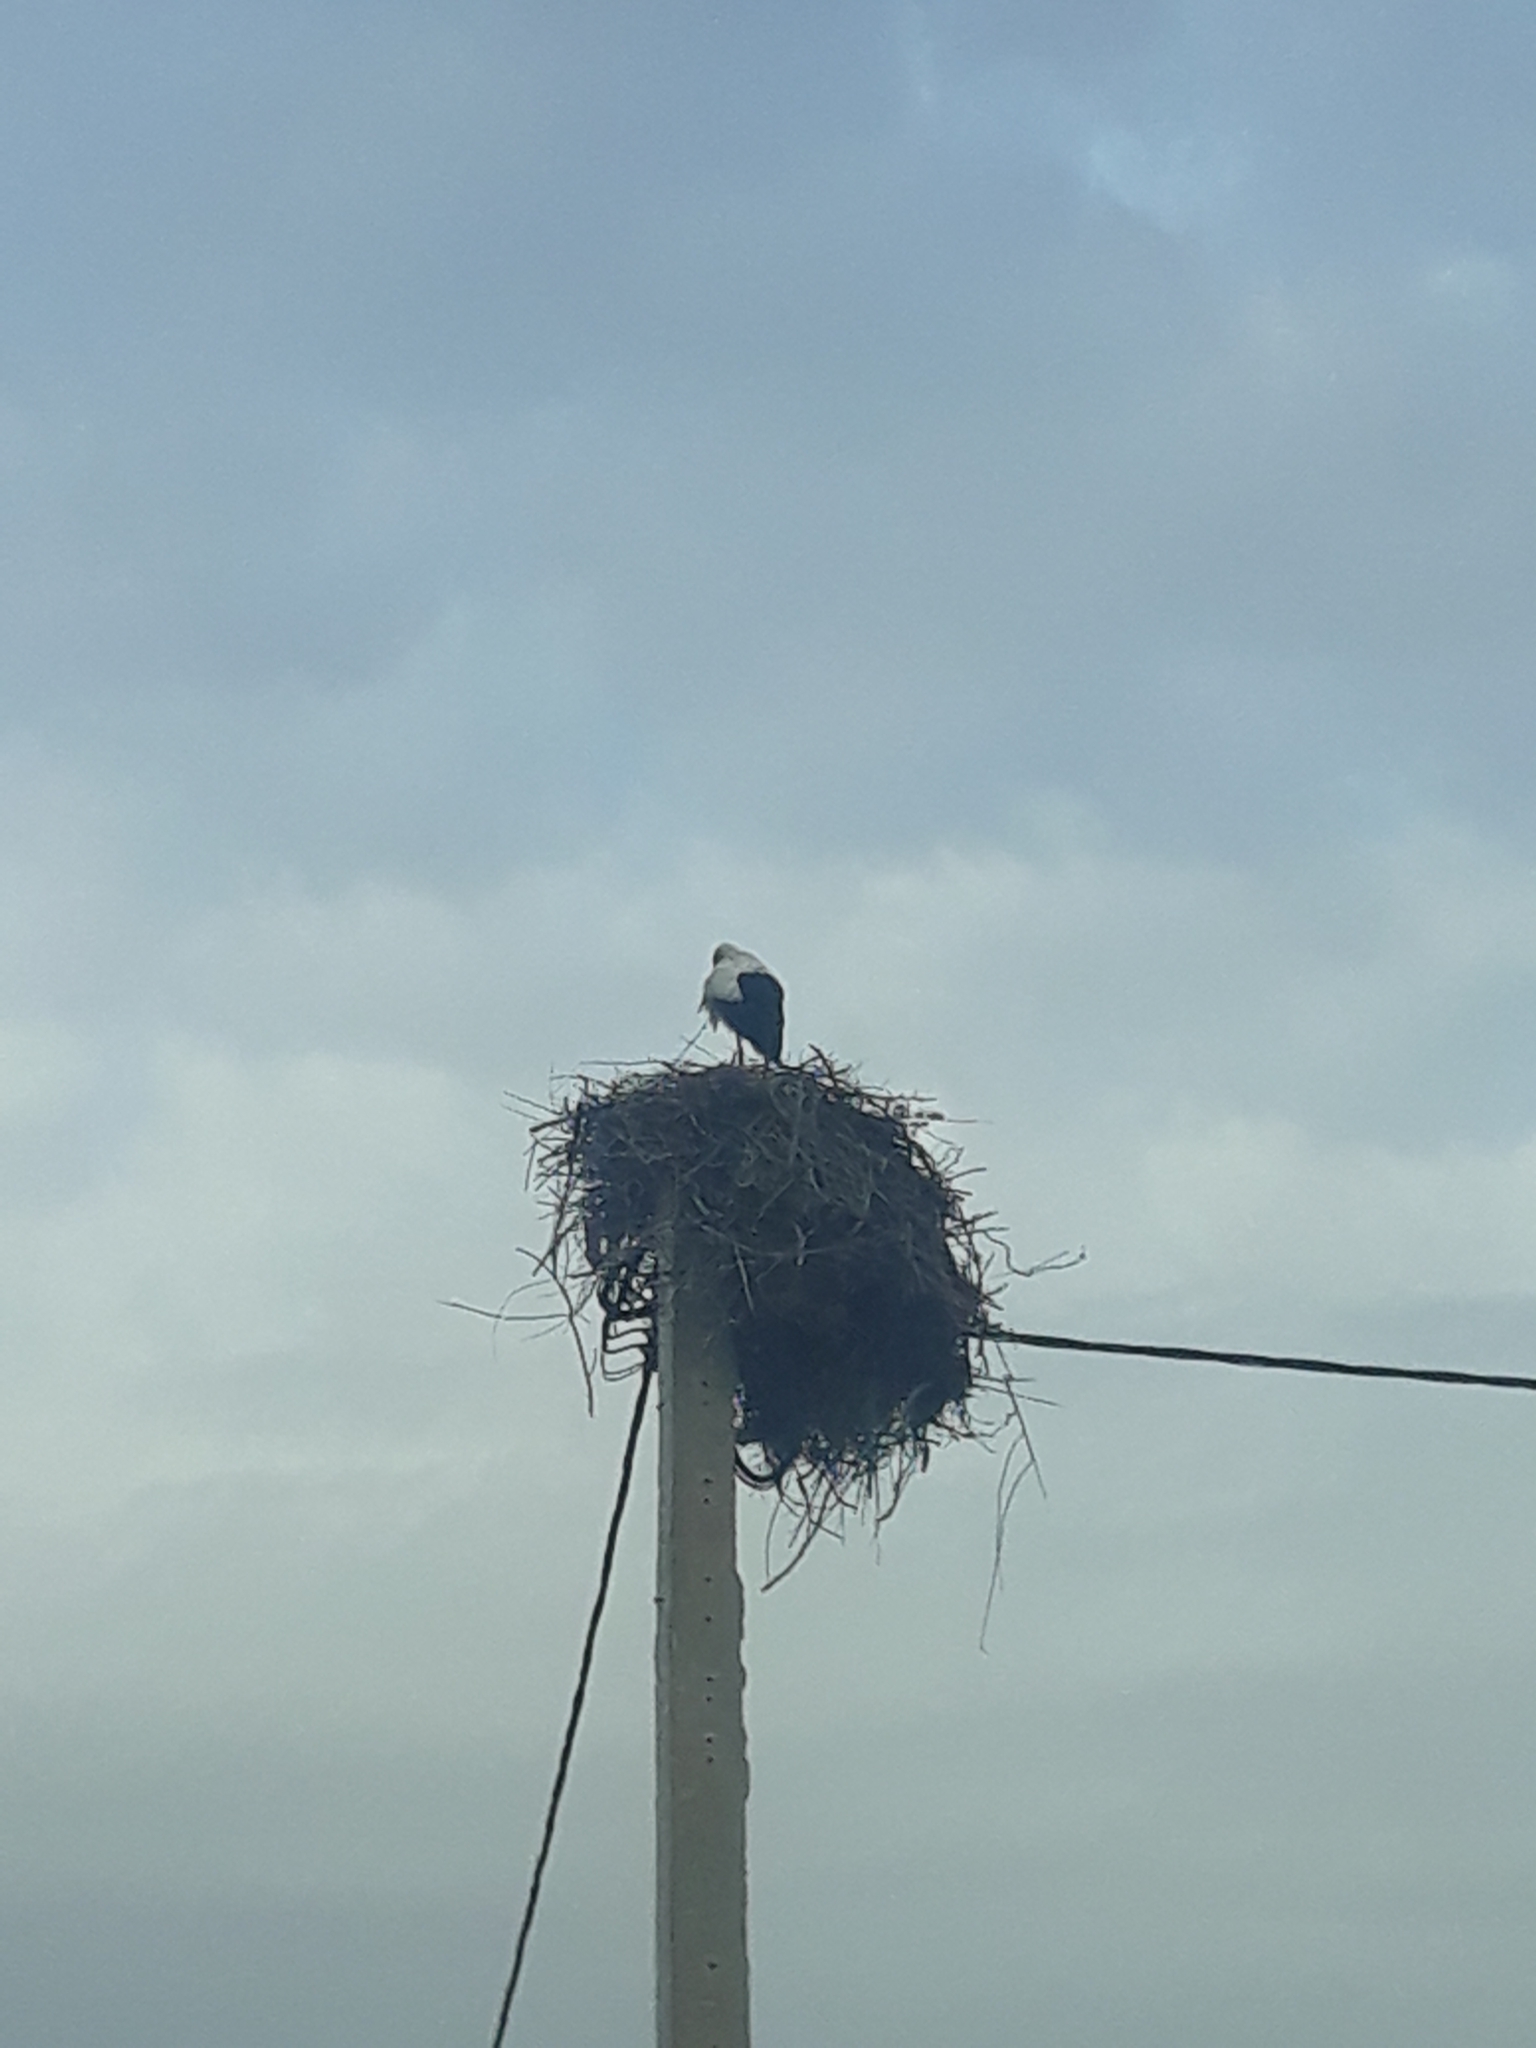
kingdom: Animalia
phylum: Chordata
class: Aves
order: Ciconiiformes
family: Ciconiidae
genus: Ciconia
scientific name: Ciconia ciconia
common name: White stork
